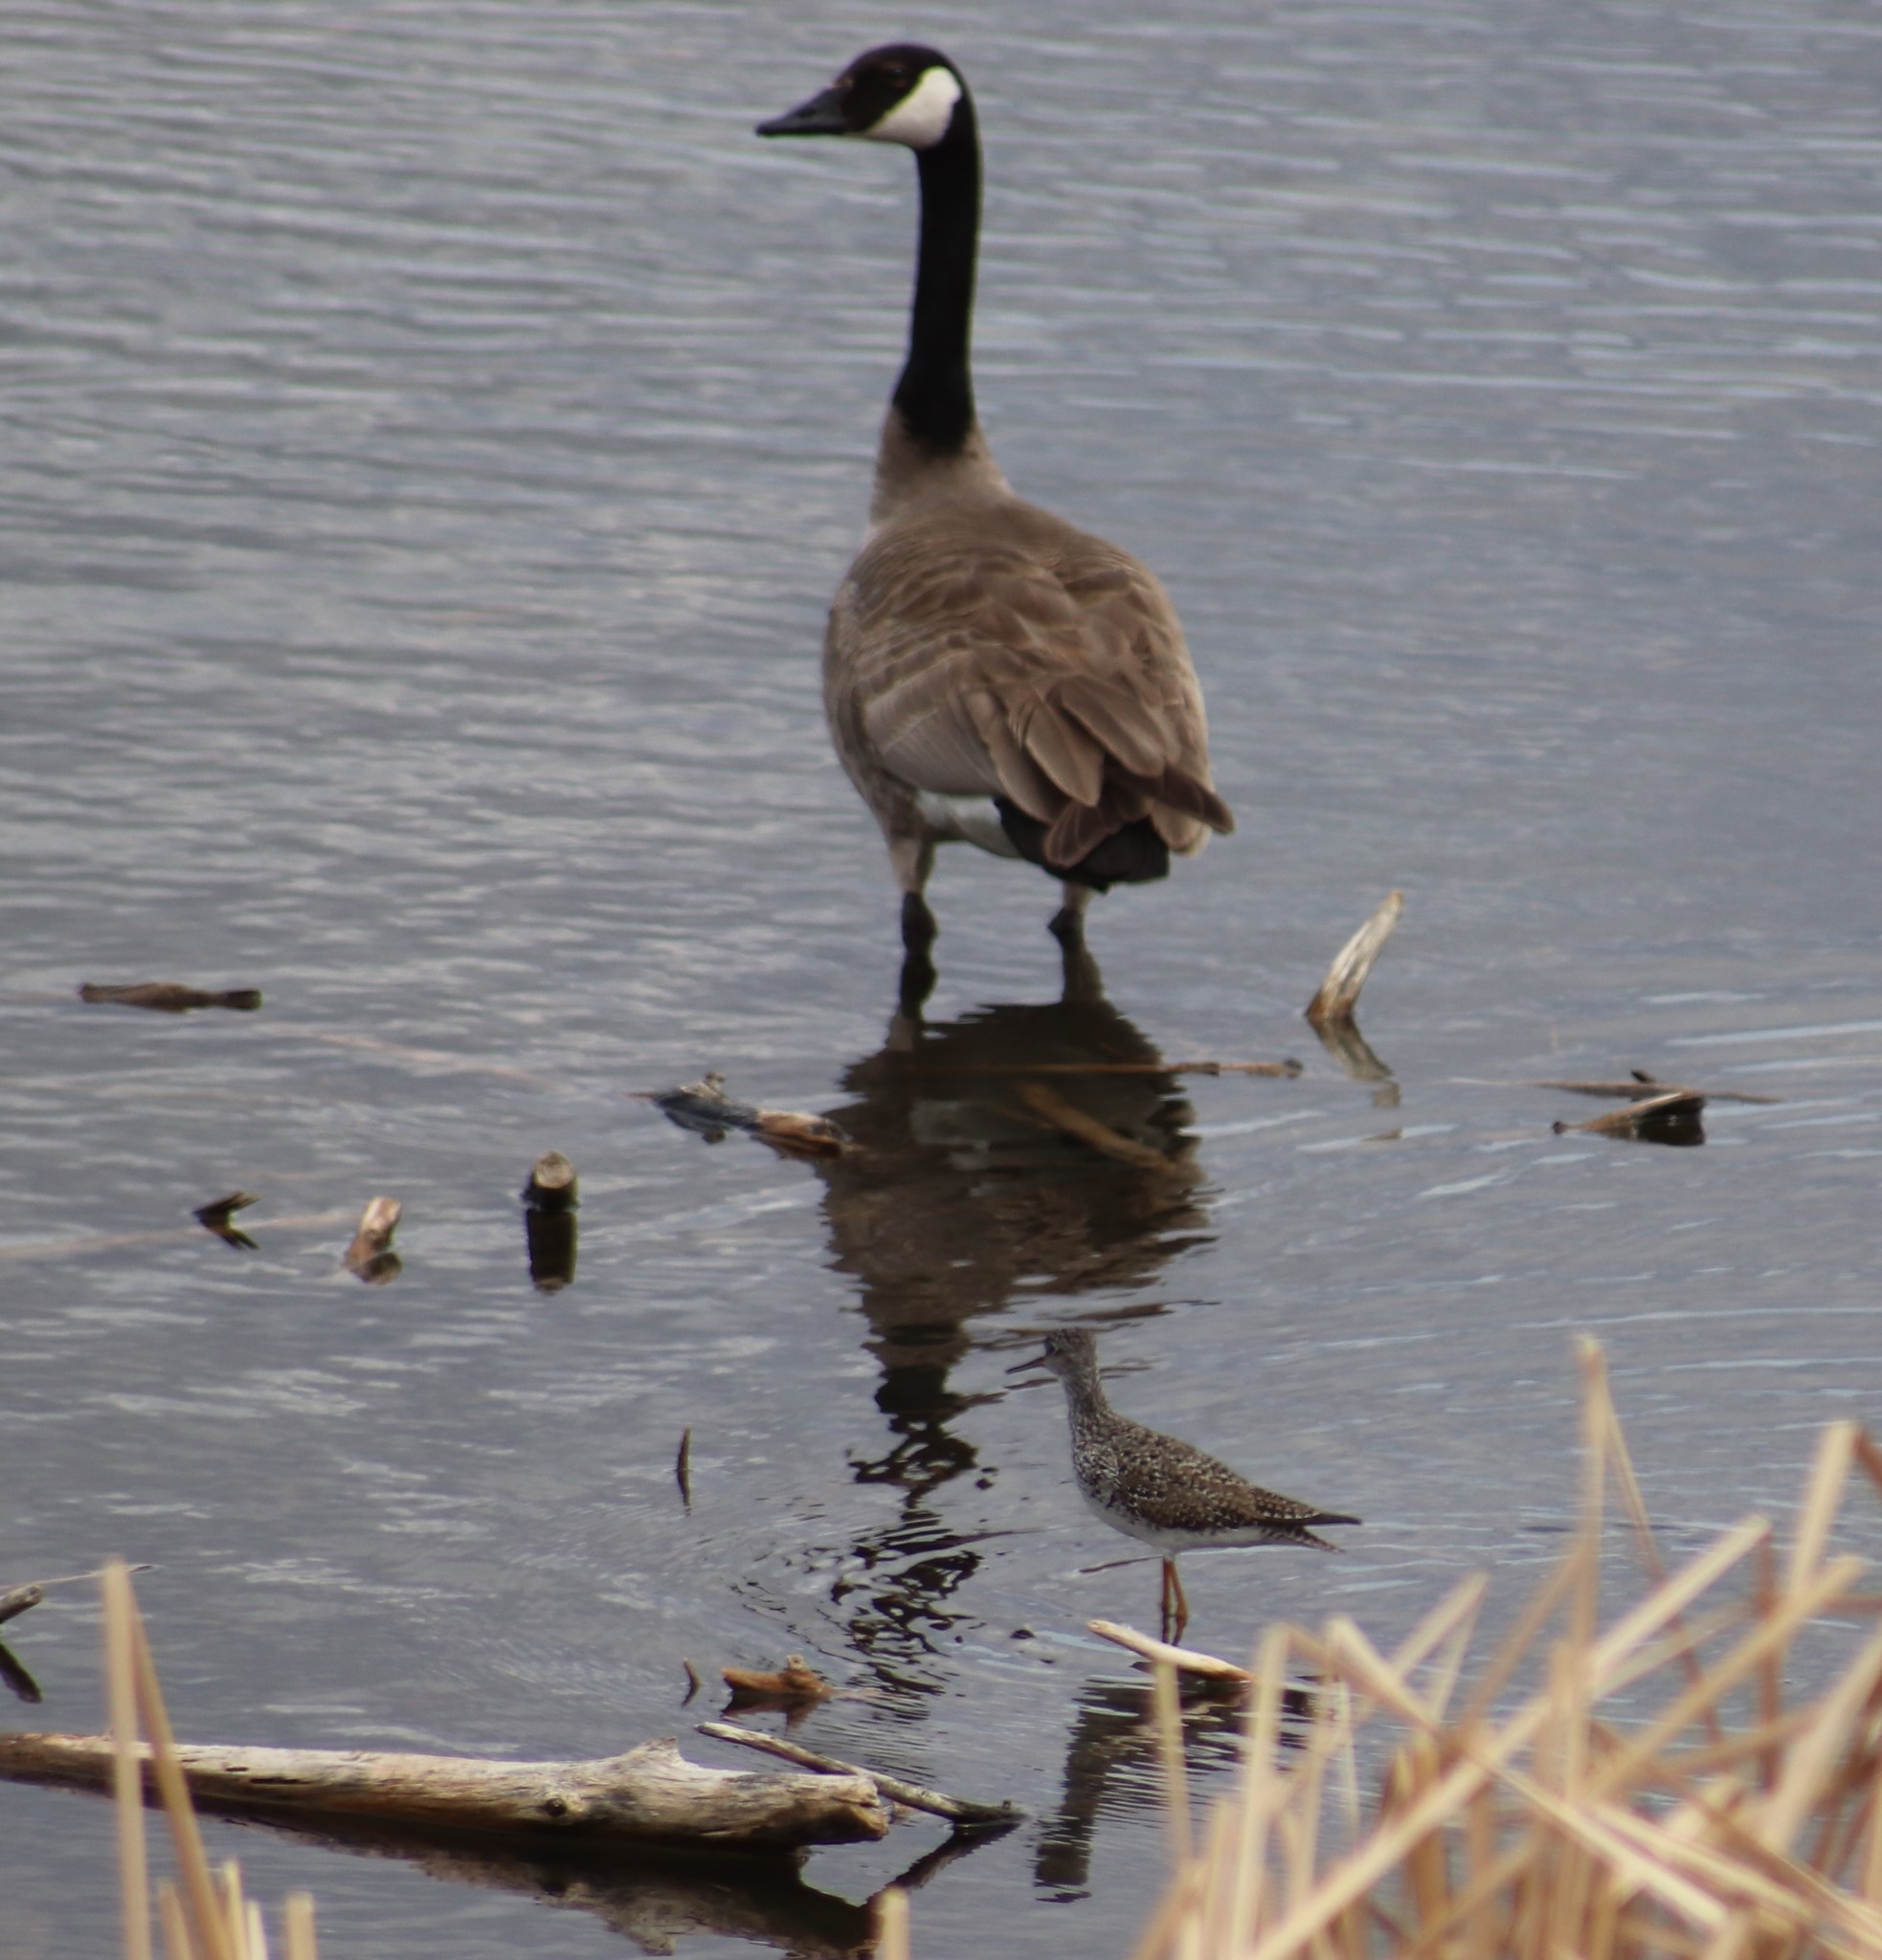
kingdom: Animalia
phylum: Chordata
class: Aves
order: Charadriiformes
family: Scolopacidae
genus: Tringa
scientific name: Tringa flavipes
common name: Lesser yellowlegs
